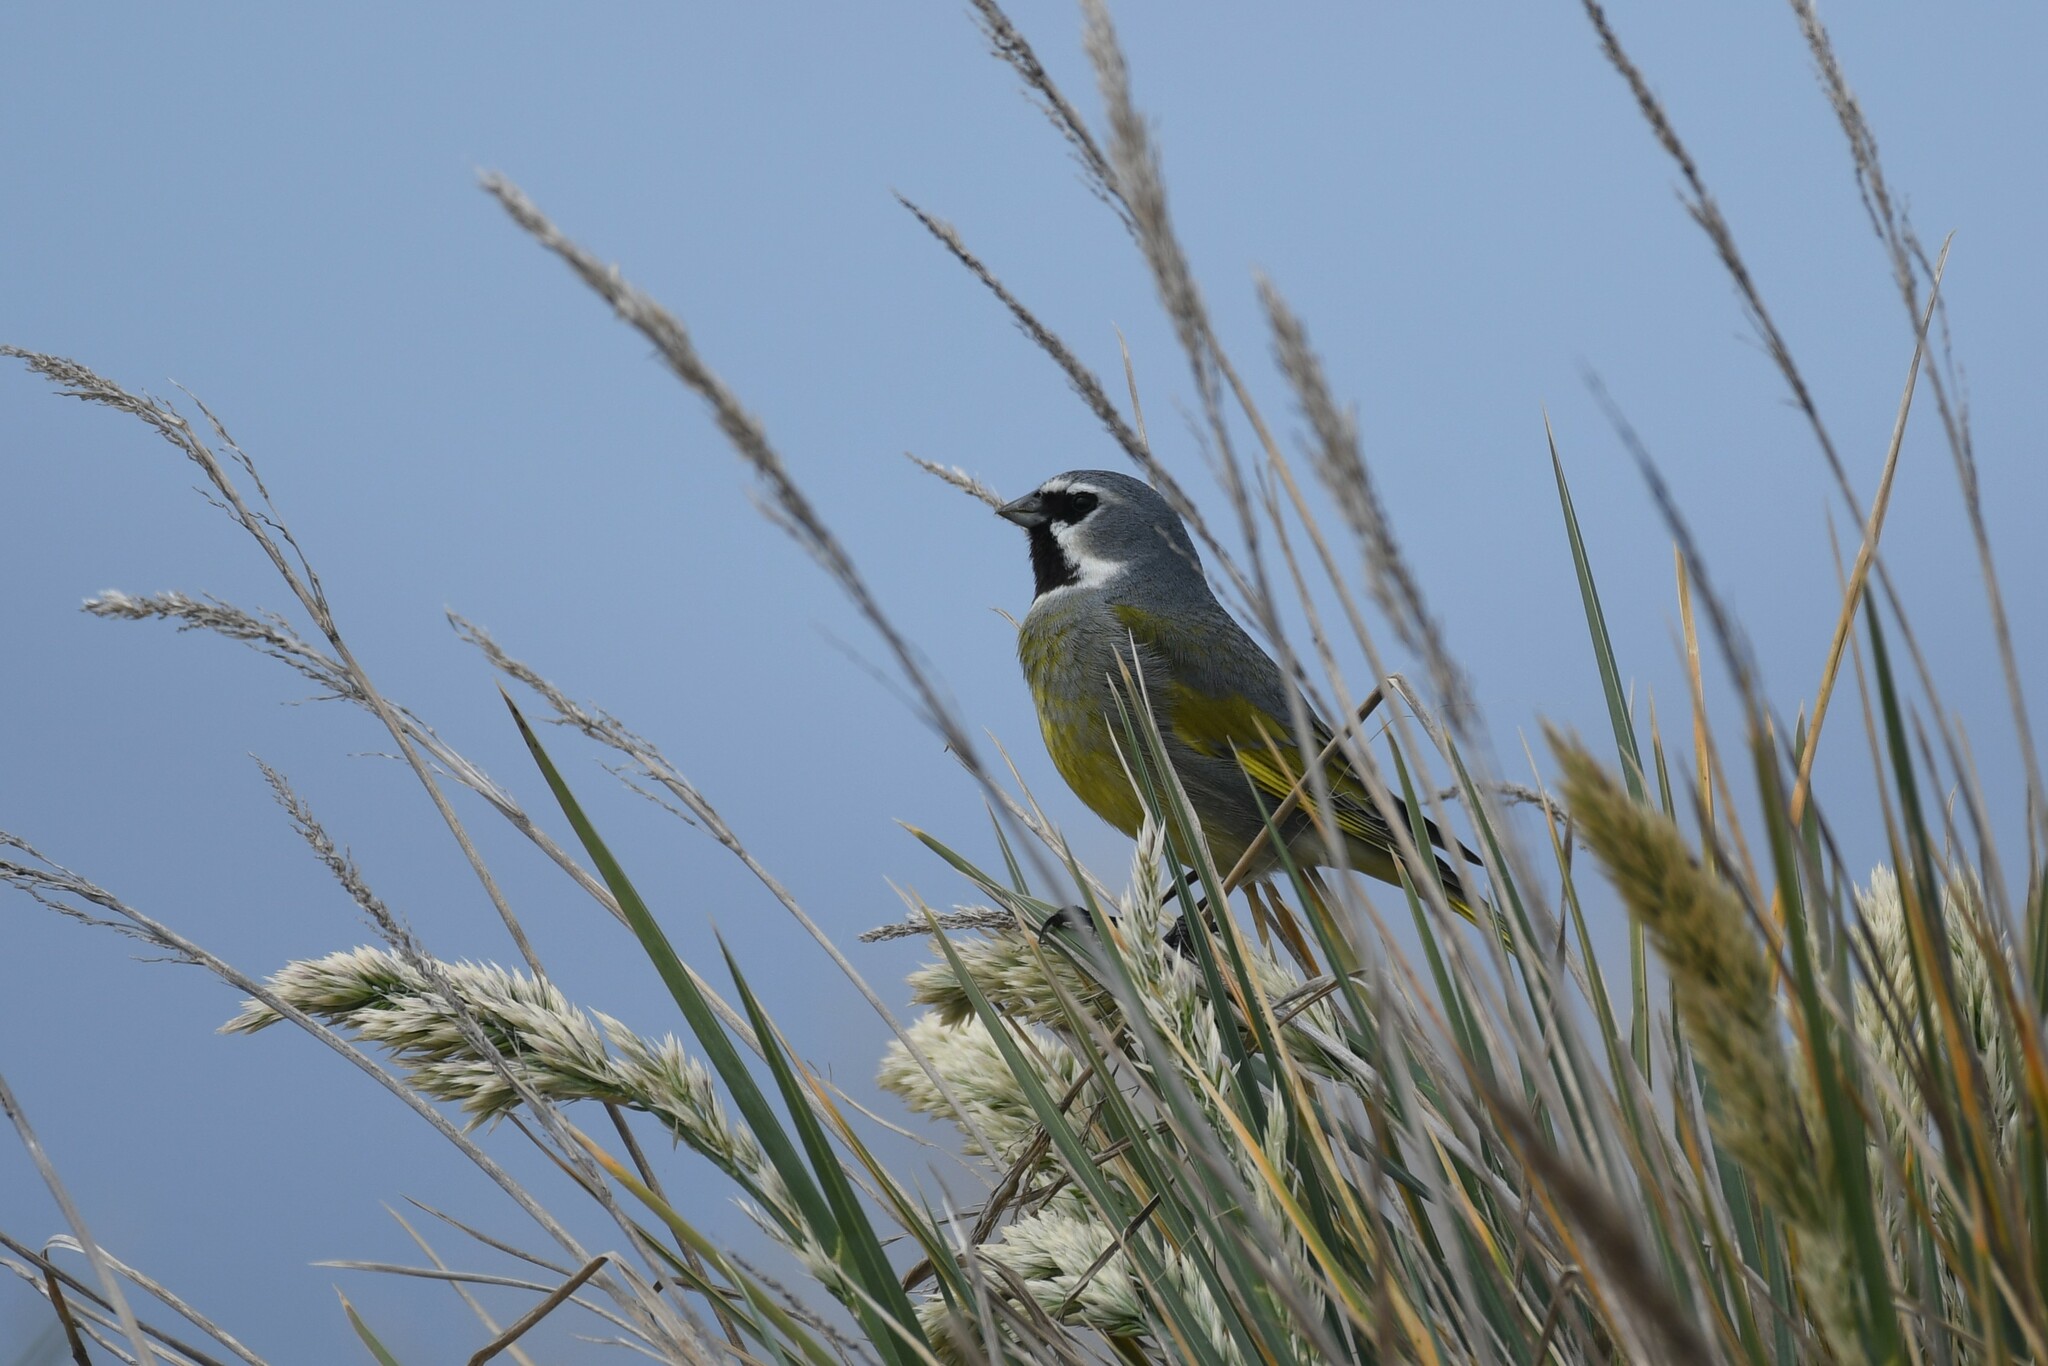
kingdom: Animalia
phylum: Chordata
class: Aves
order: Passeriformes
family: Thraupidae
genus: Melanodera
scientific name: Melanodera melanodera
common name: White-bridled finch
